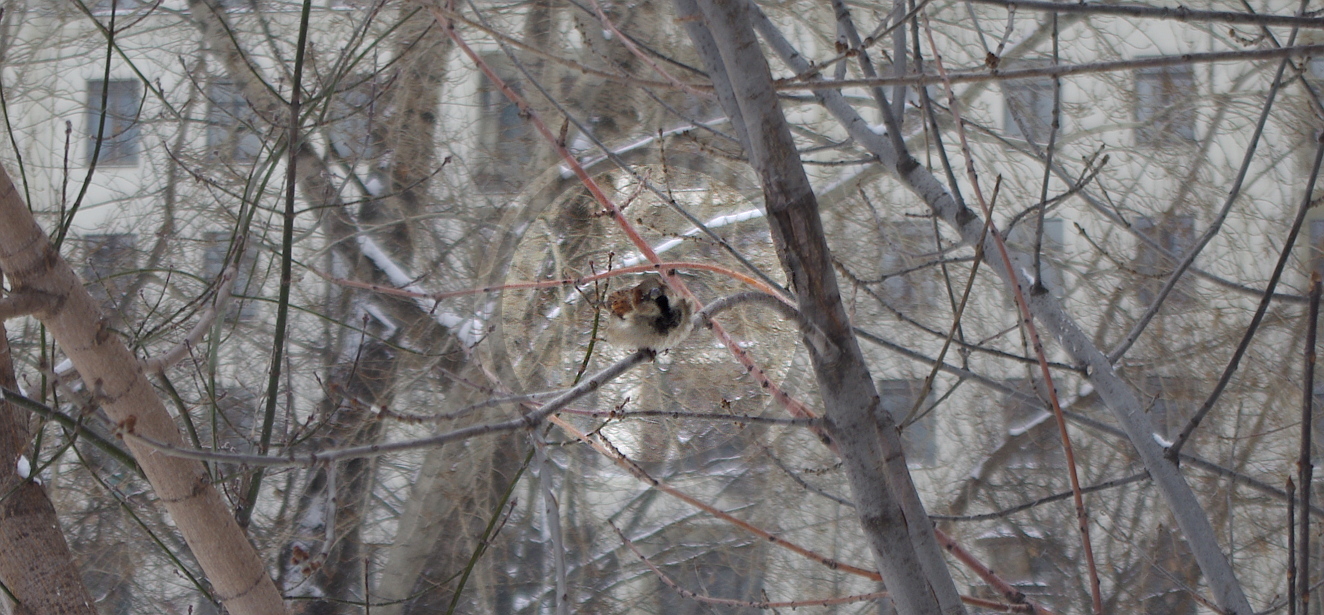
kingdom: Animalia
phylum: Chordata
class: Aves
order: Passeriformes
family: Passeridae
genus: Passer
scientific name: Passer domesticus
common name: House sparrow
